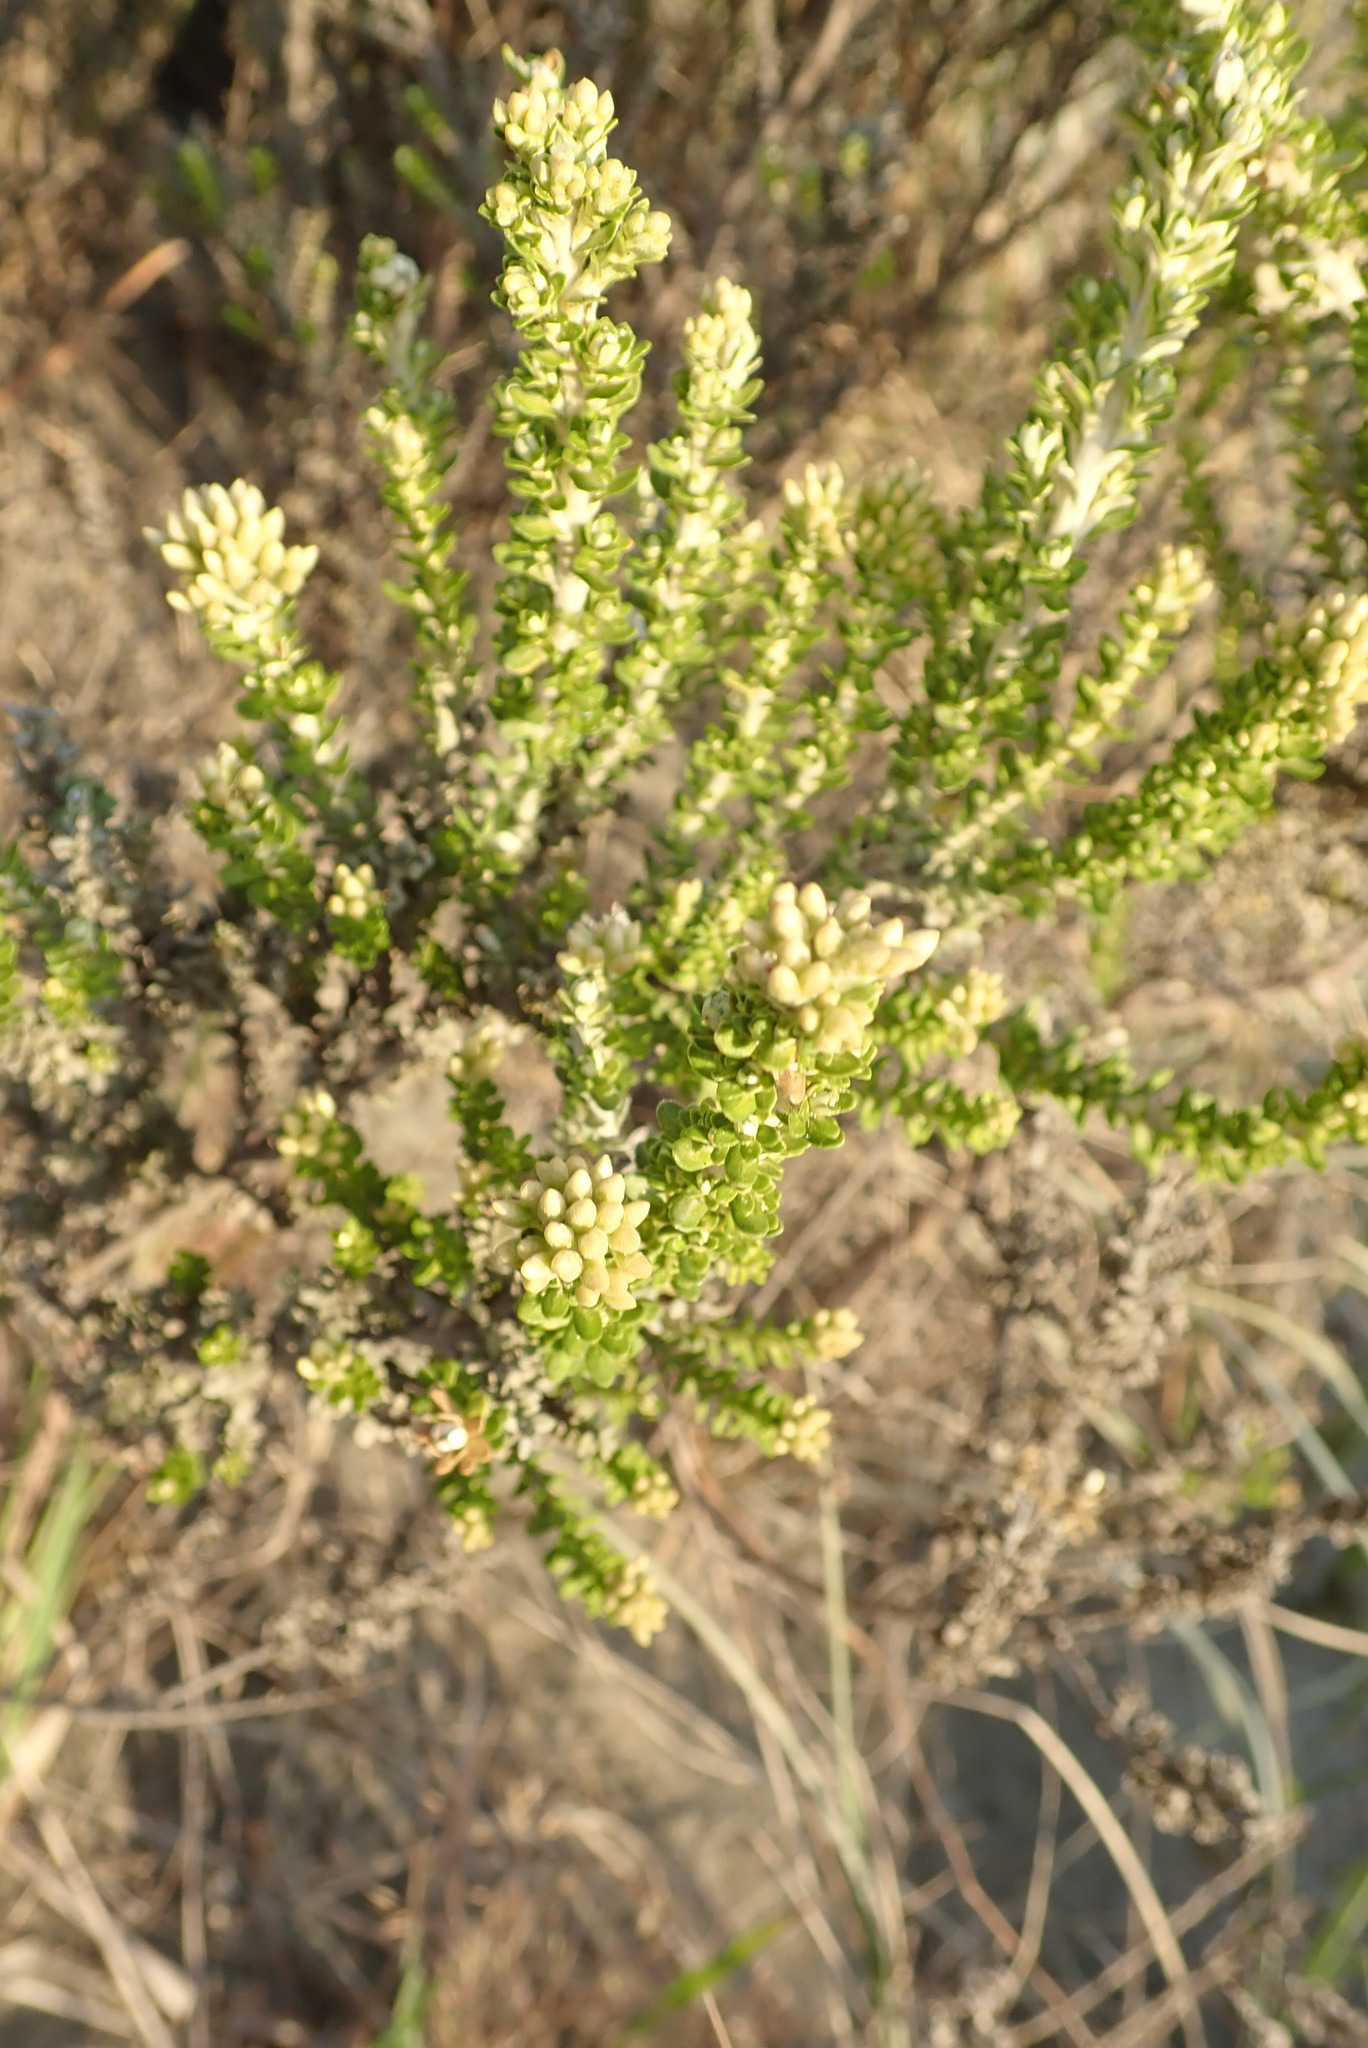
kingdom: Plantae
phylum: Tracheophyta
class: Magnoliopsida
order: Asterales
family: Asteraceae
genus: Ozothamnus
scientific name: Ozothamnus leptophyllus
